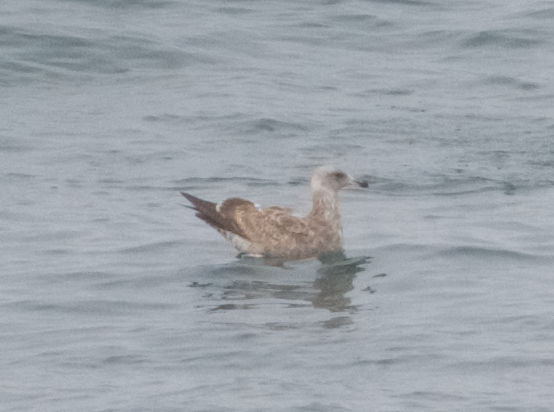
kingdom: Animalia
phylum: Chordata
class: Aves
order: Charadriiformes
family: Laridae
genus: Larus
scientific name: Larus occidentalis
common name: Western gull
